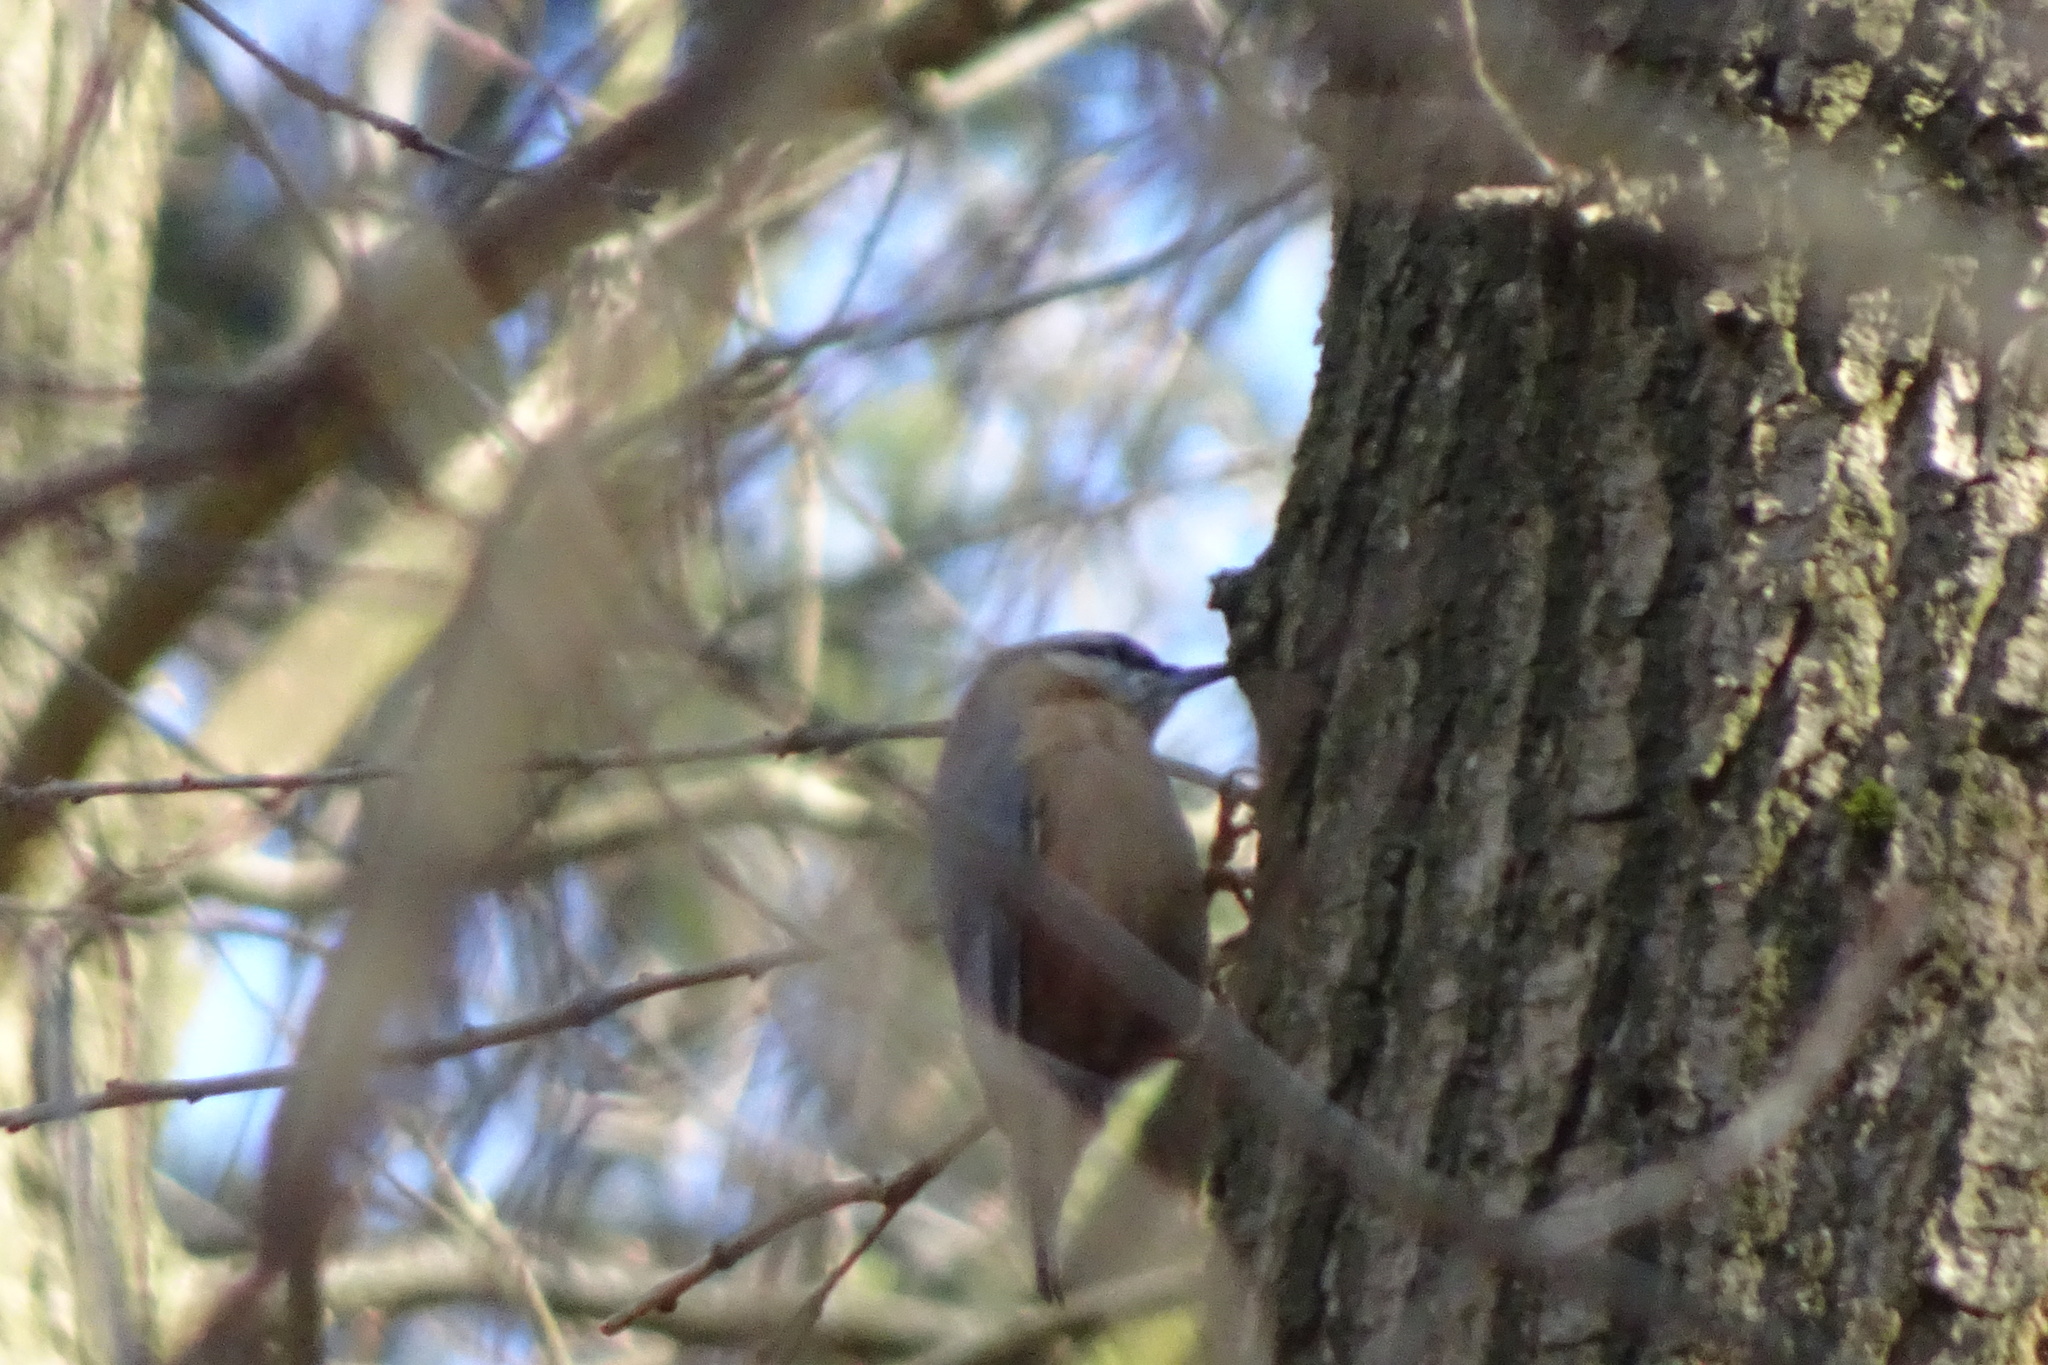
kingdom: Animalia
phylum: Chordata
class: Aves
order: Passeriformes
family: Sittidae
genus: Sitta
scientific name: Sitta europaea
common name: Eurasian nuthatch
